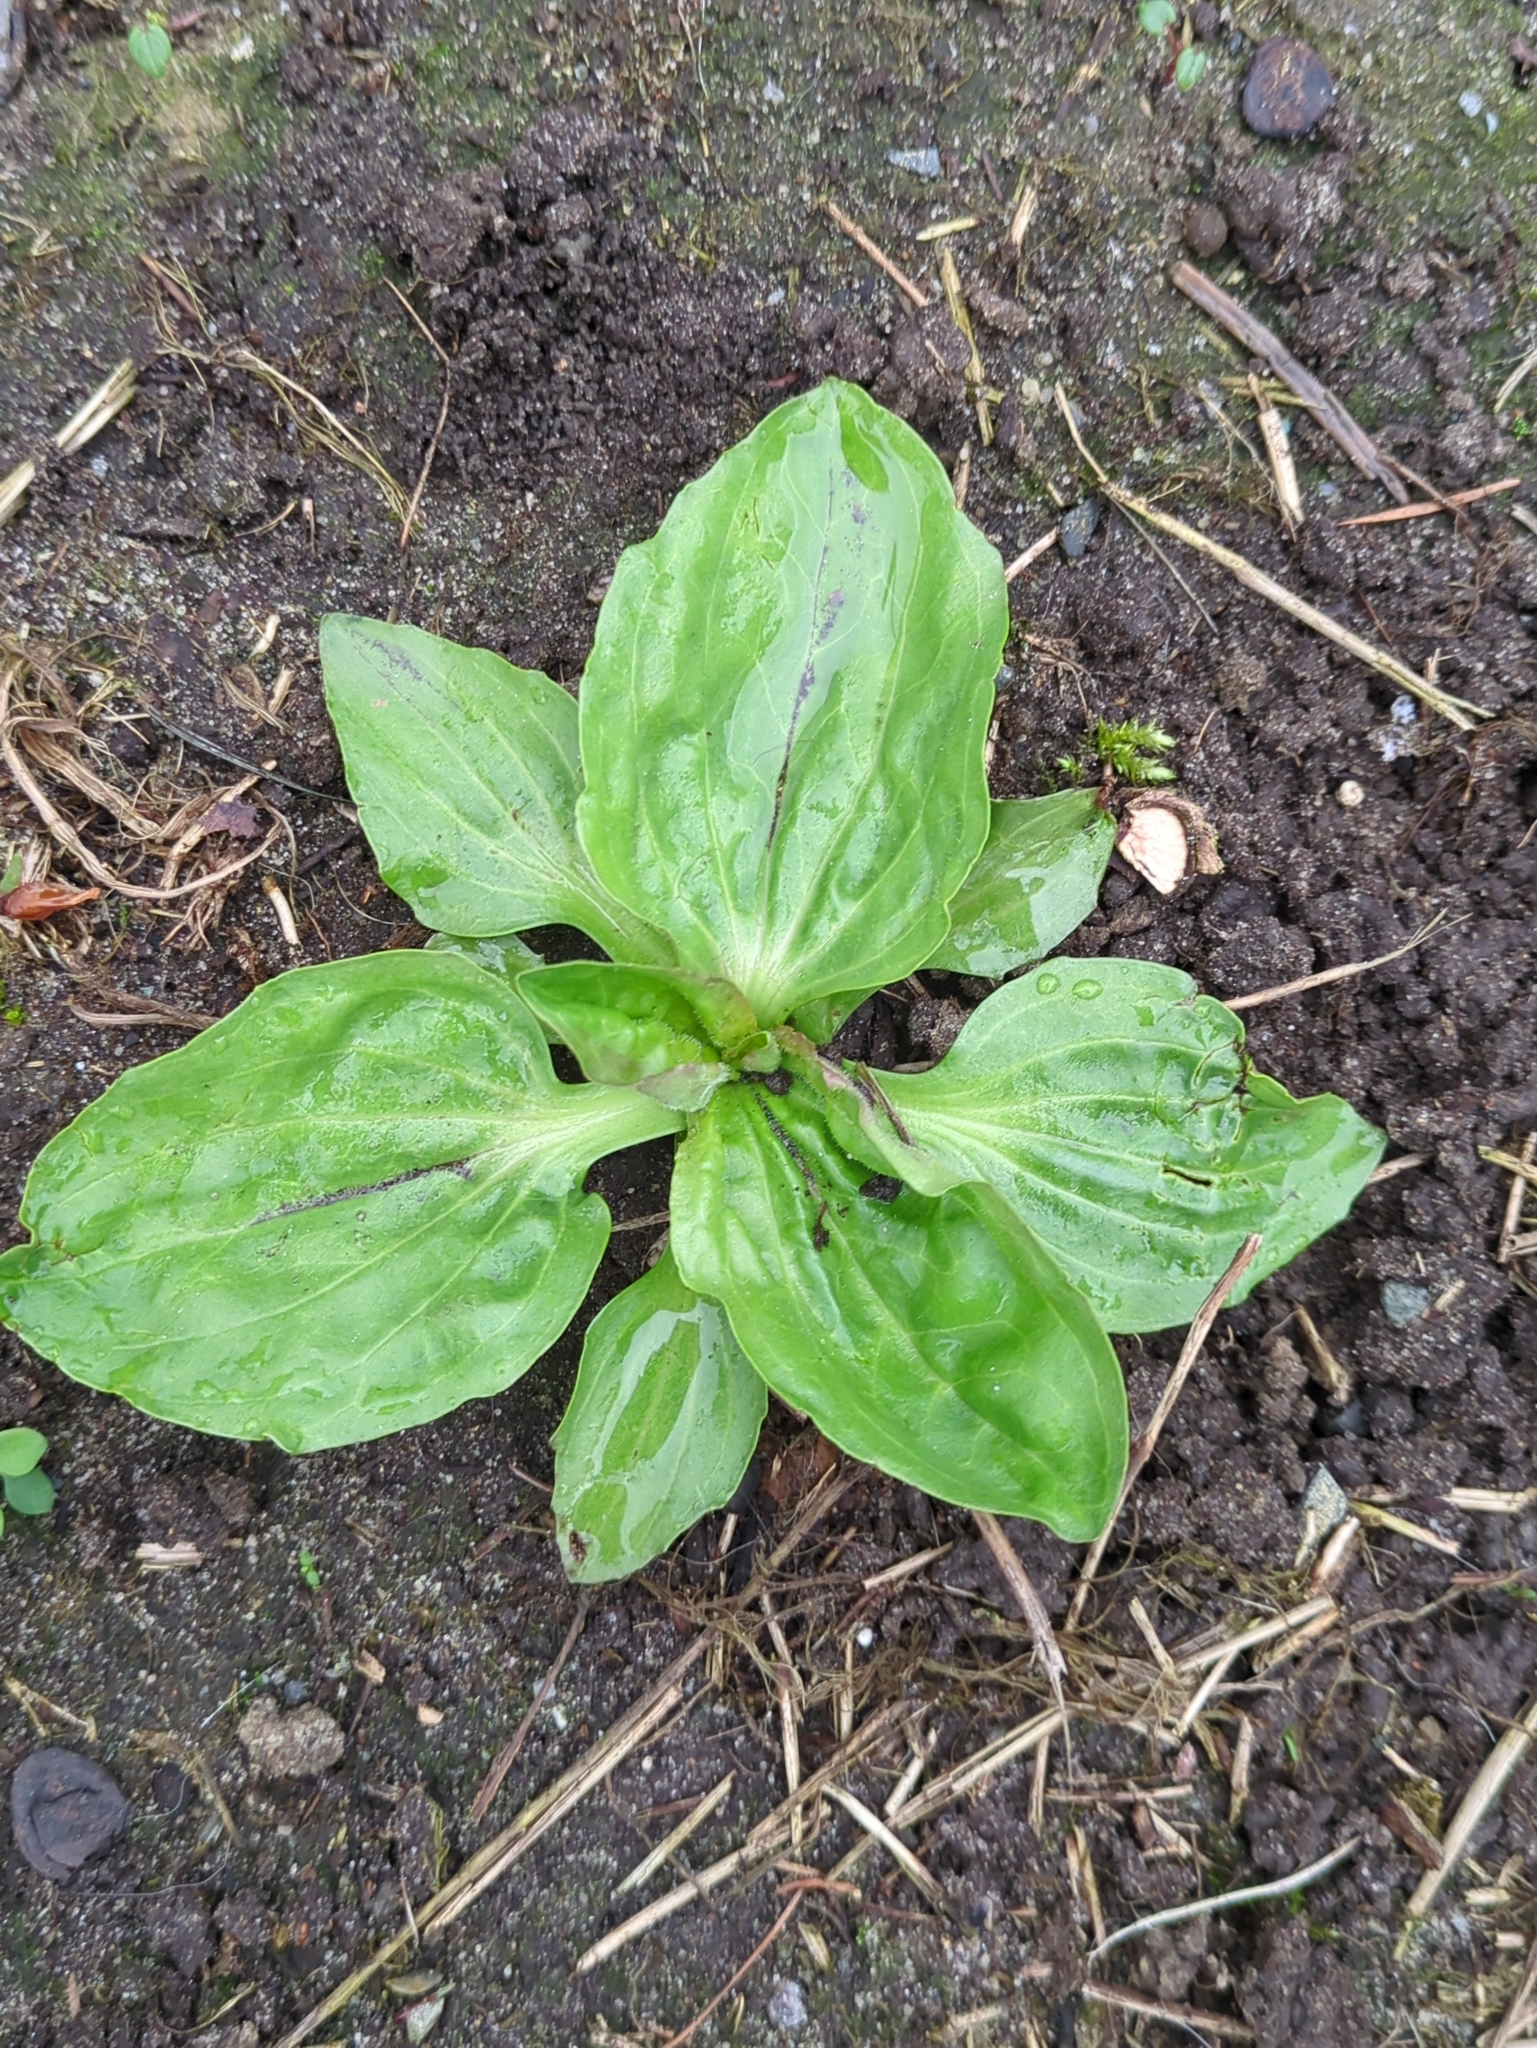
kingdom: Plantae
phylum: Tracheophyta
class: Magnoliopsida
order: Lamiales
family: Plantaginaceae
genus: Plantago
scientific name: Plantago major
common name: Common plantain
